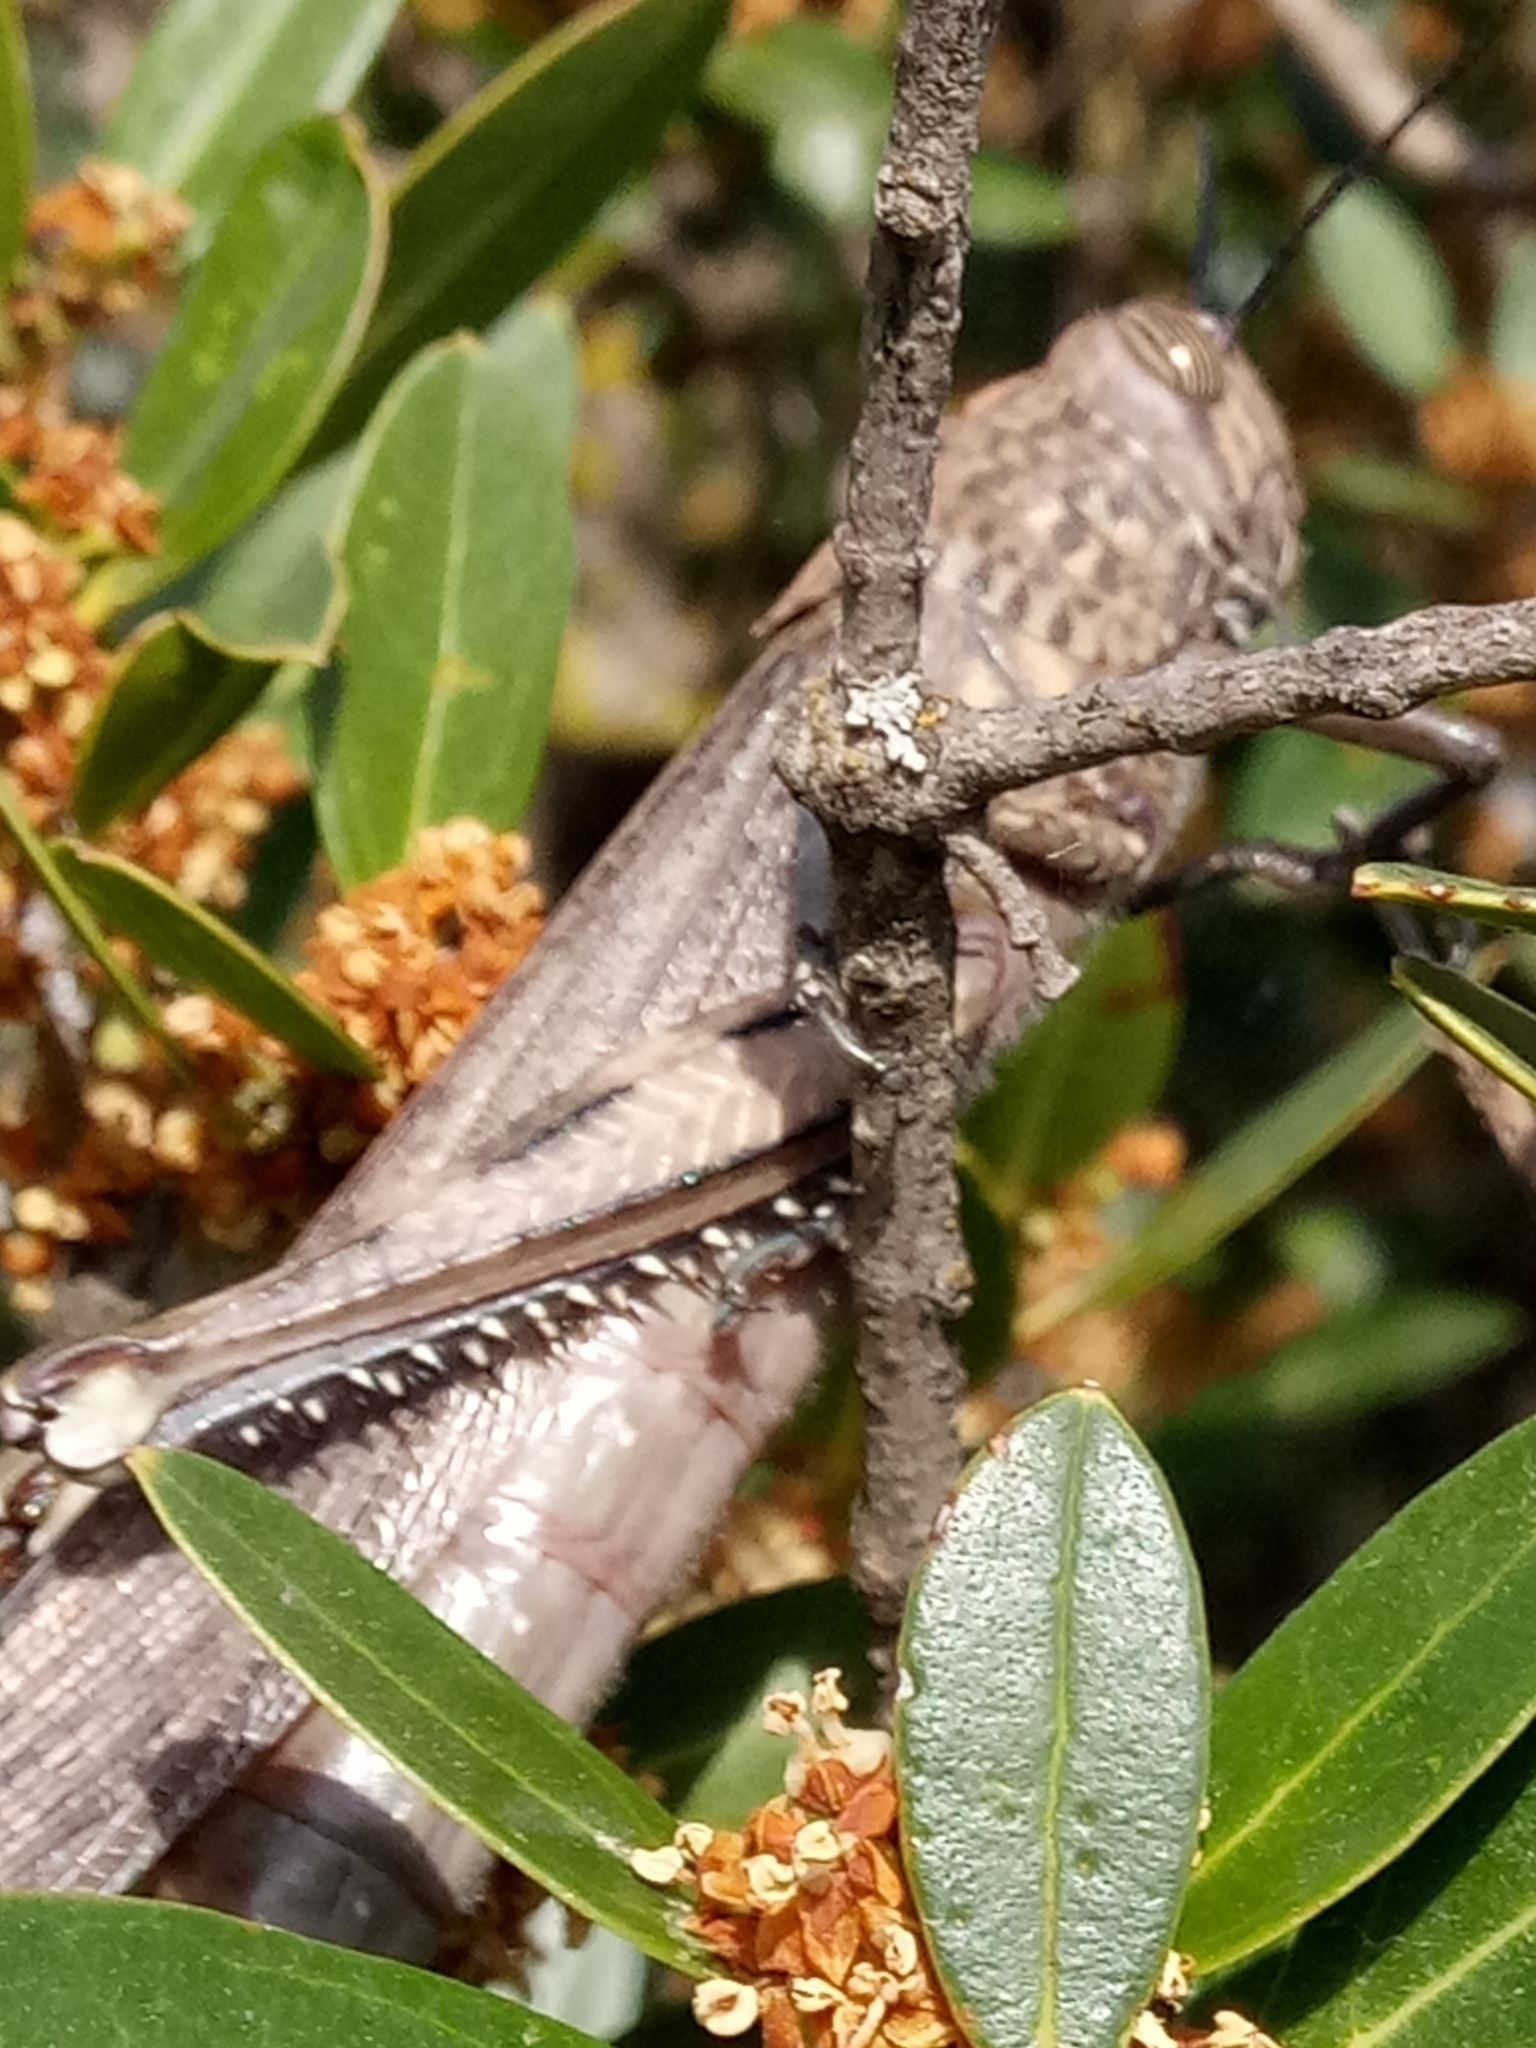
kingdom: Animalia
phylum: Arthropoda
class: Insecta
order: Orthoptera
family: Acrididae
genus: Anacridium
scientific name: Anacridium aegyptium
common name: Egyptian grasshopper
